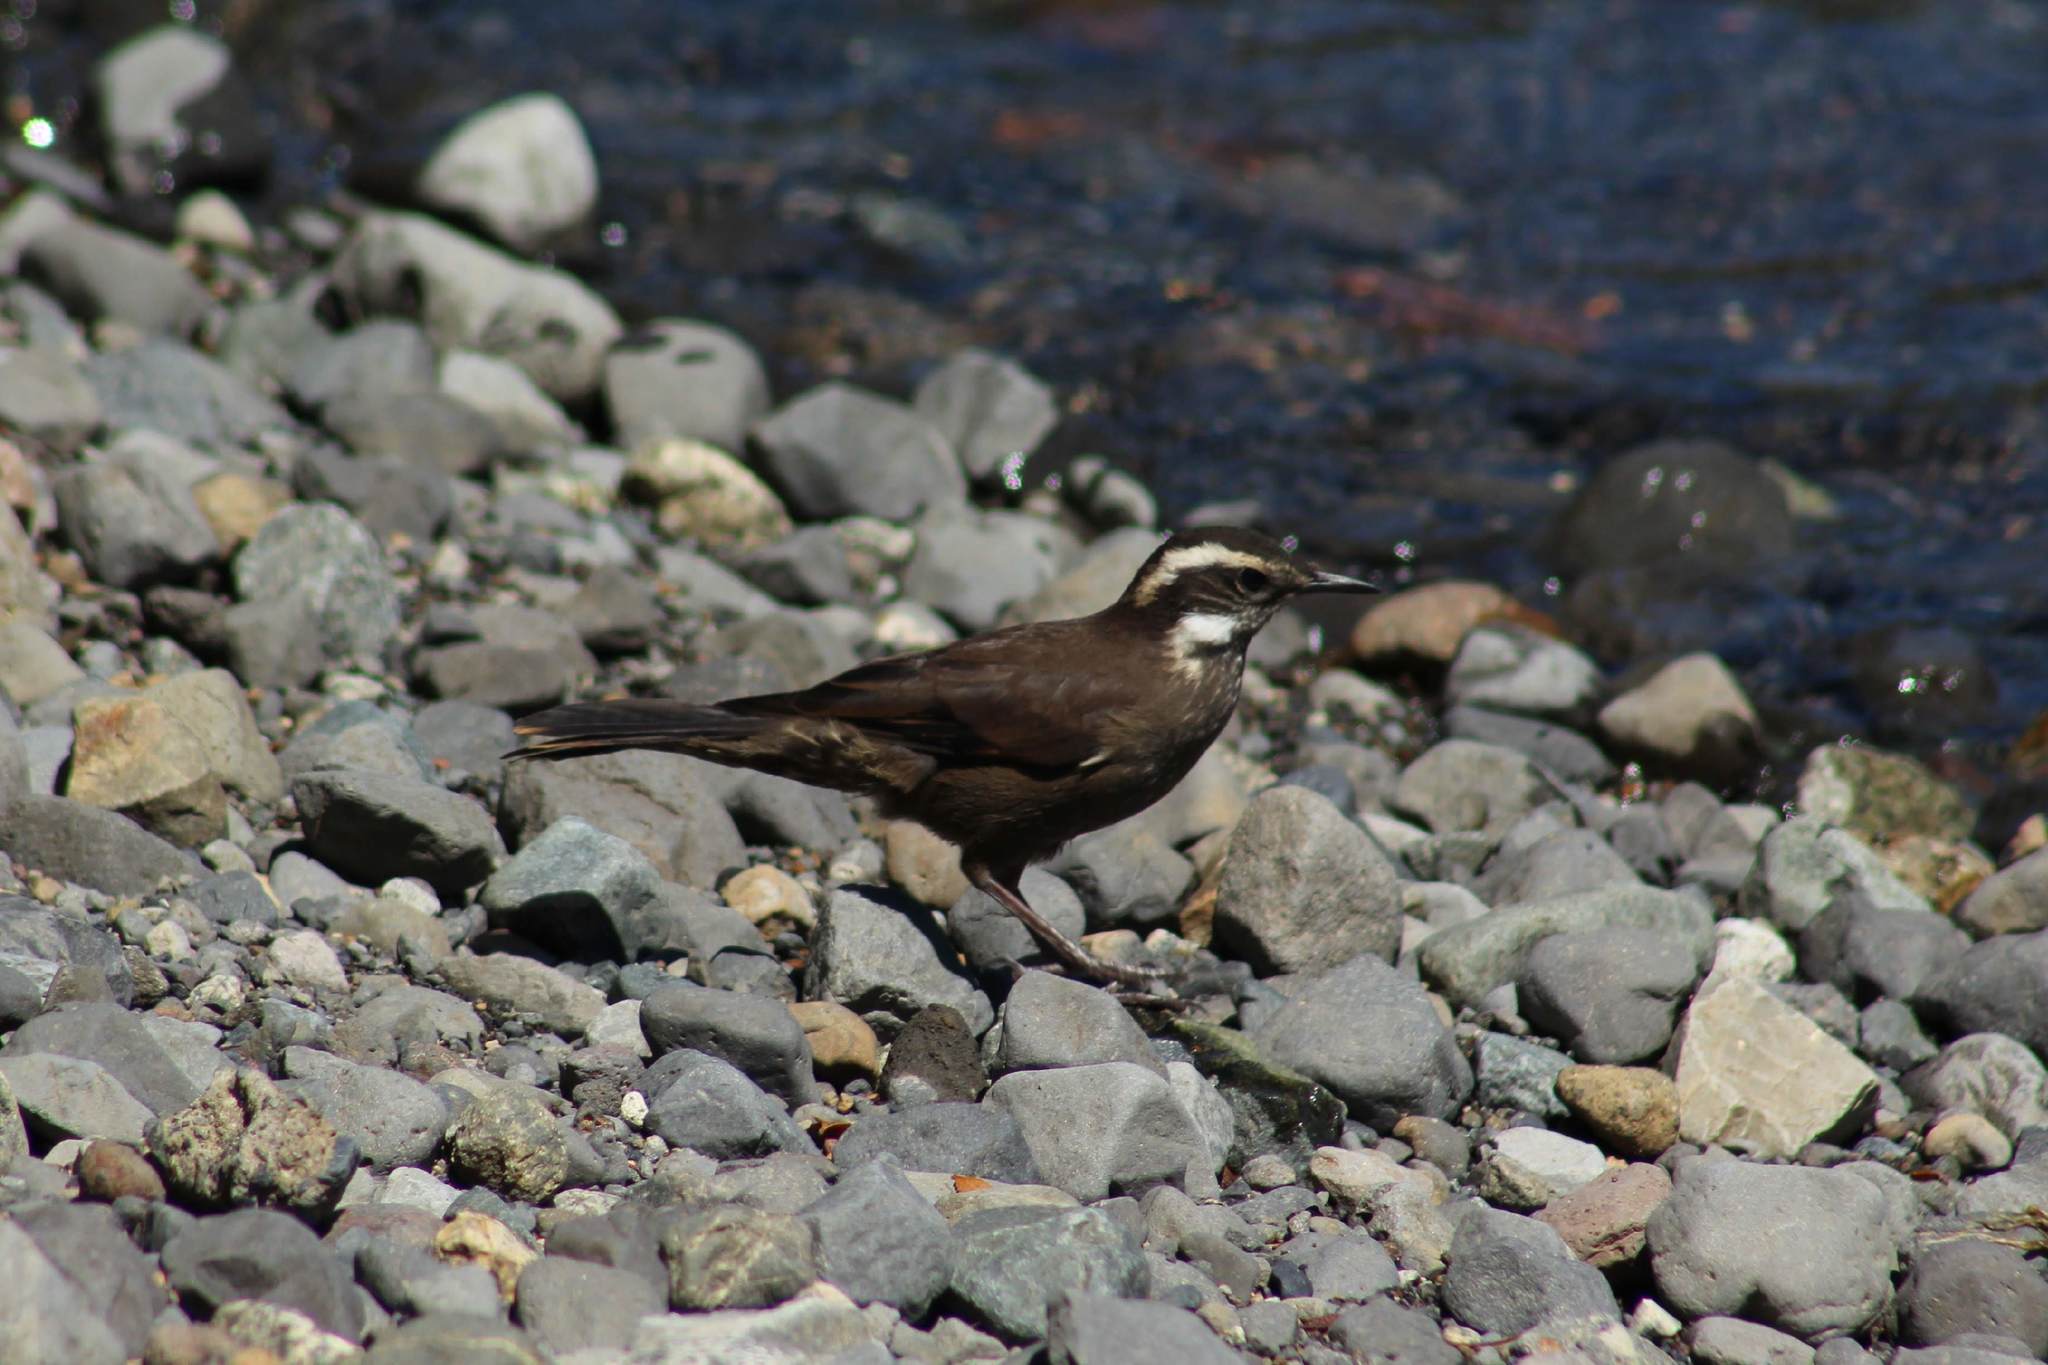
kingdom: Animalia
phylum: Chordata
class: Aves
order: Passeriformes
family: Furnariidae
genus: Cinclodes
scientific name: Cinclodes patagonicus
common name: Dark-bellied cinclodes
